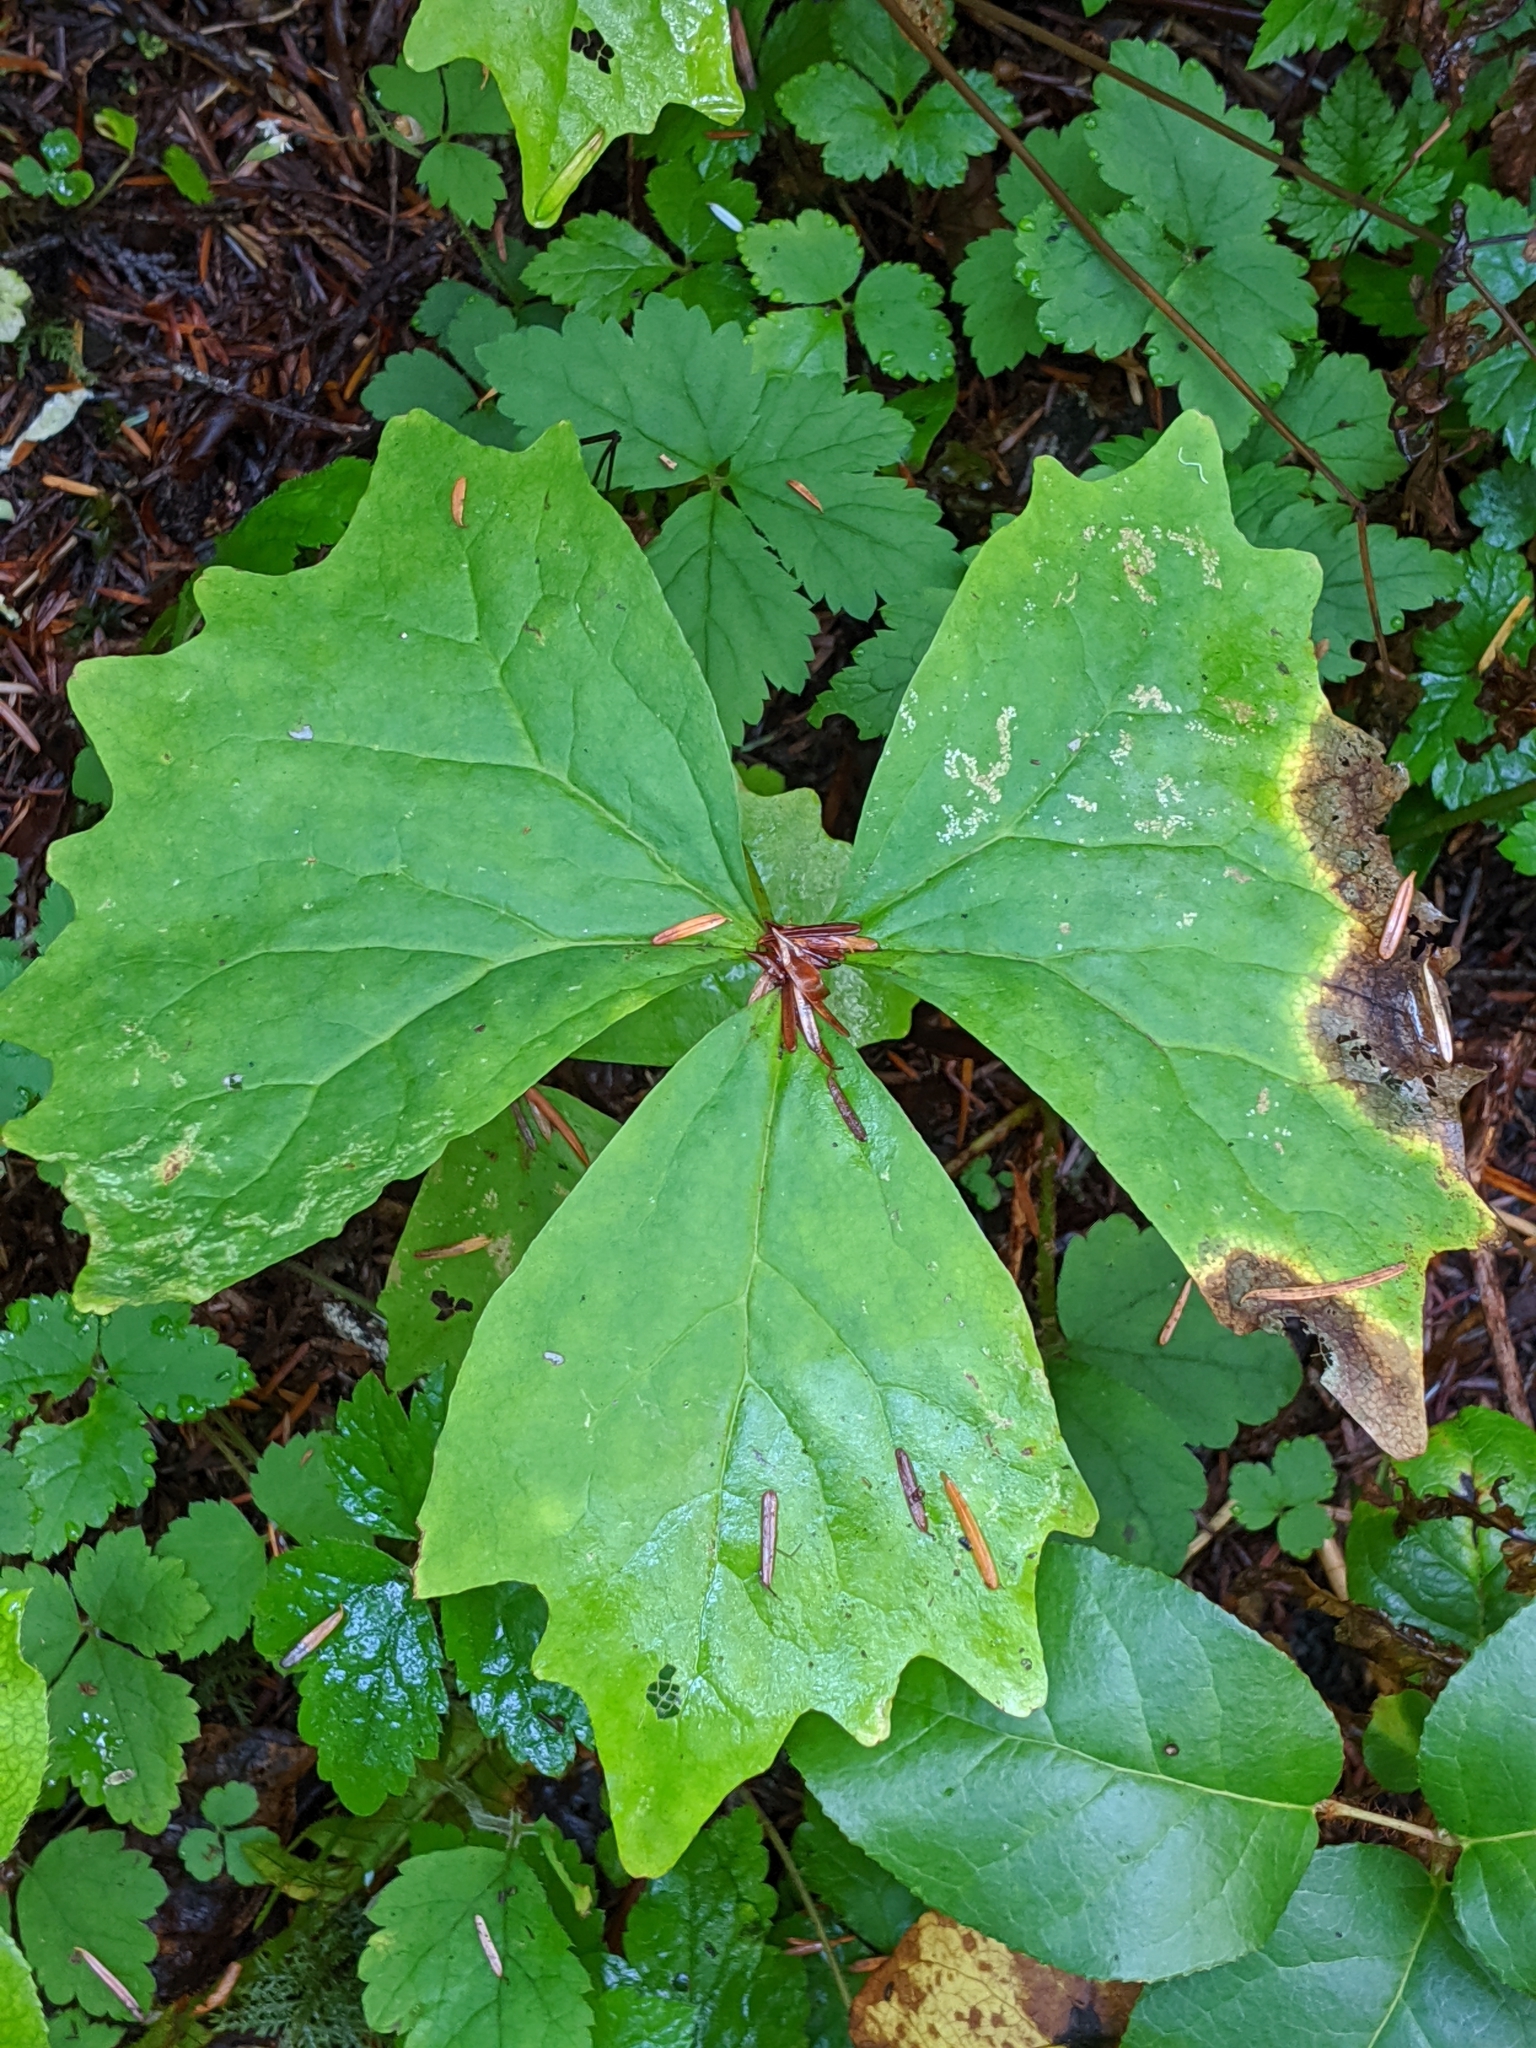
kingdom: Plantae
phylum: Tracheophyta
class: Magnoliopsida
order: Ranunculales
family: Berberidaceae
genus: Achlys
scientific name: Achlys californica
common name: California deer-foot
